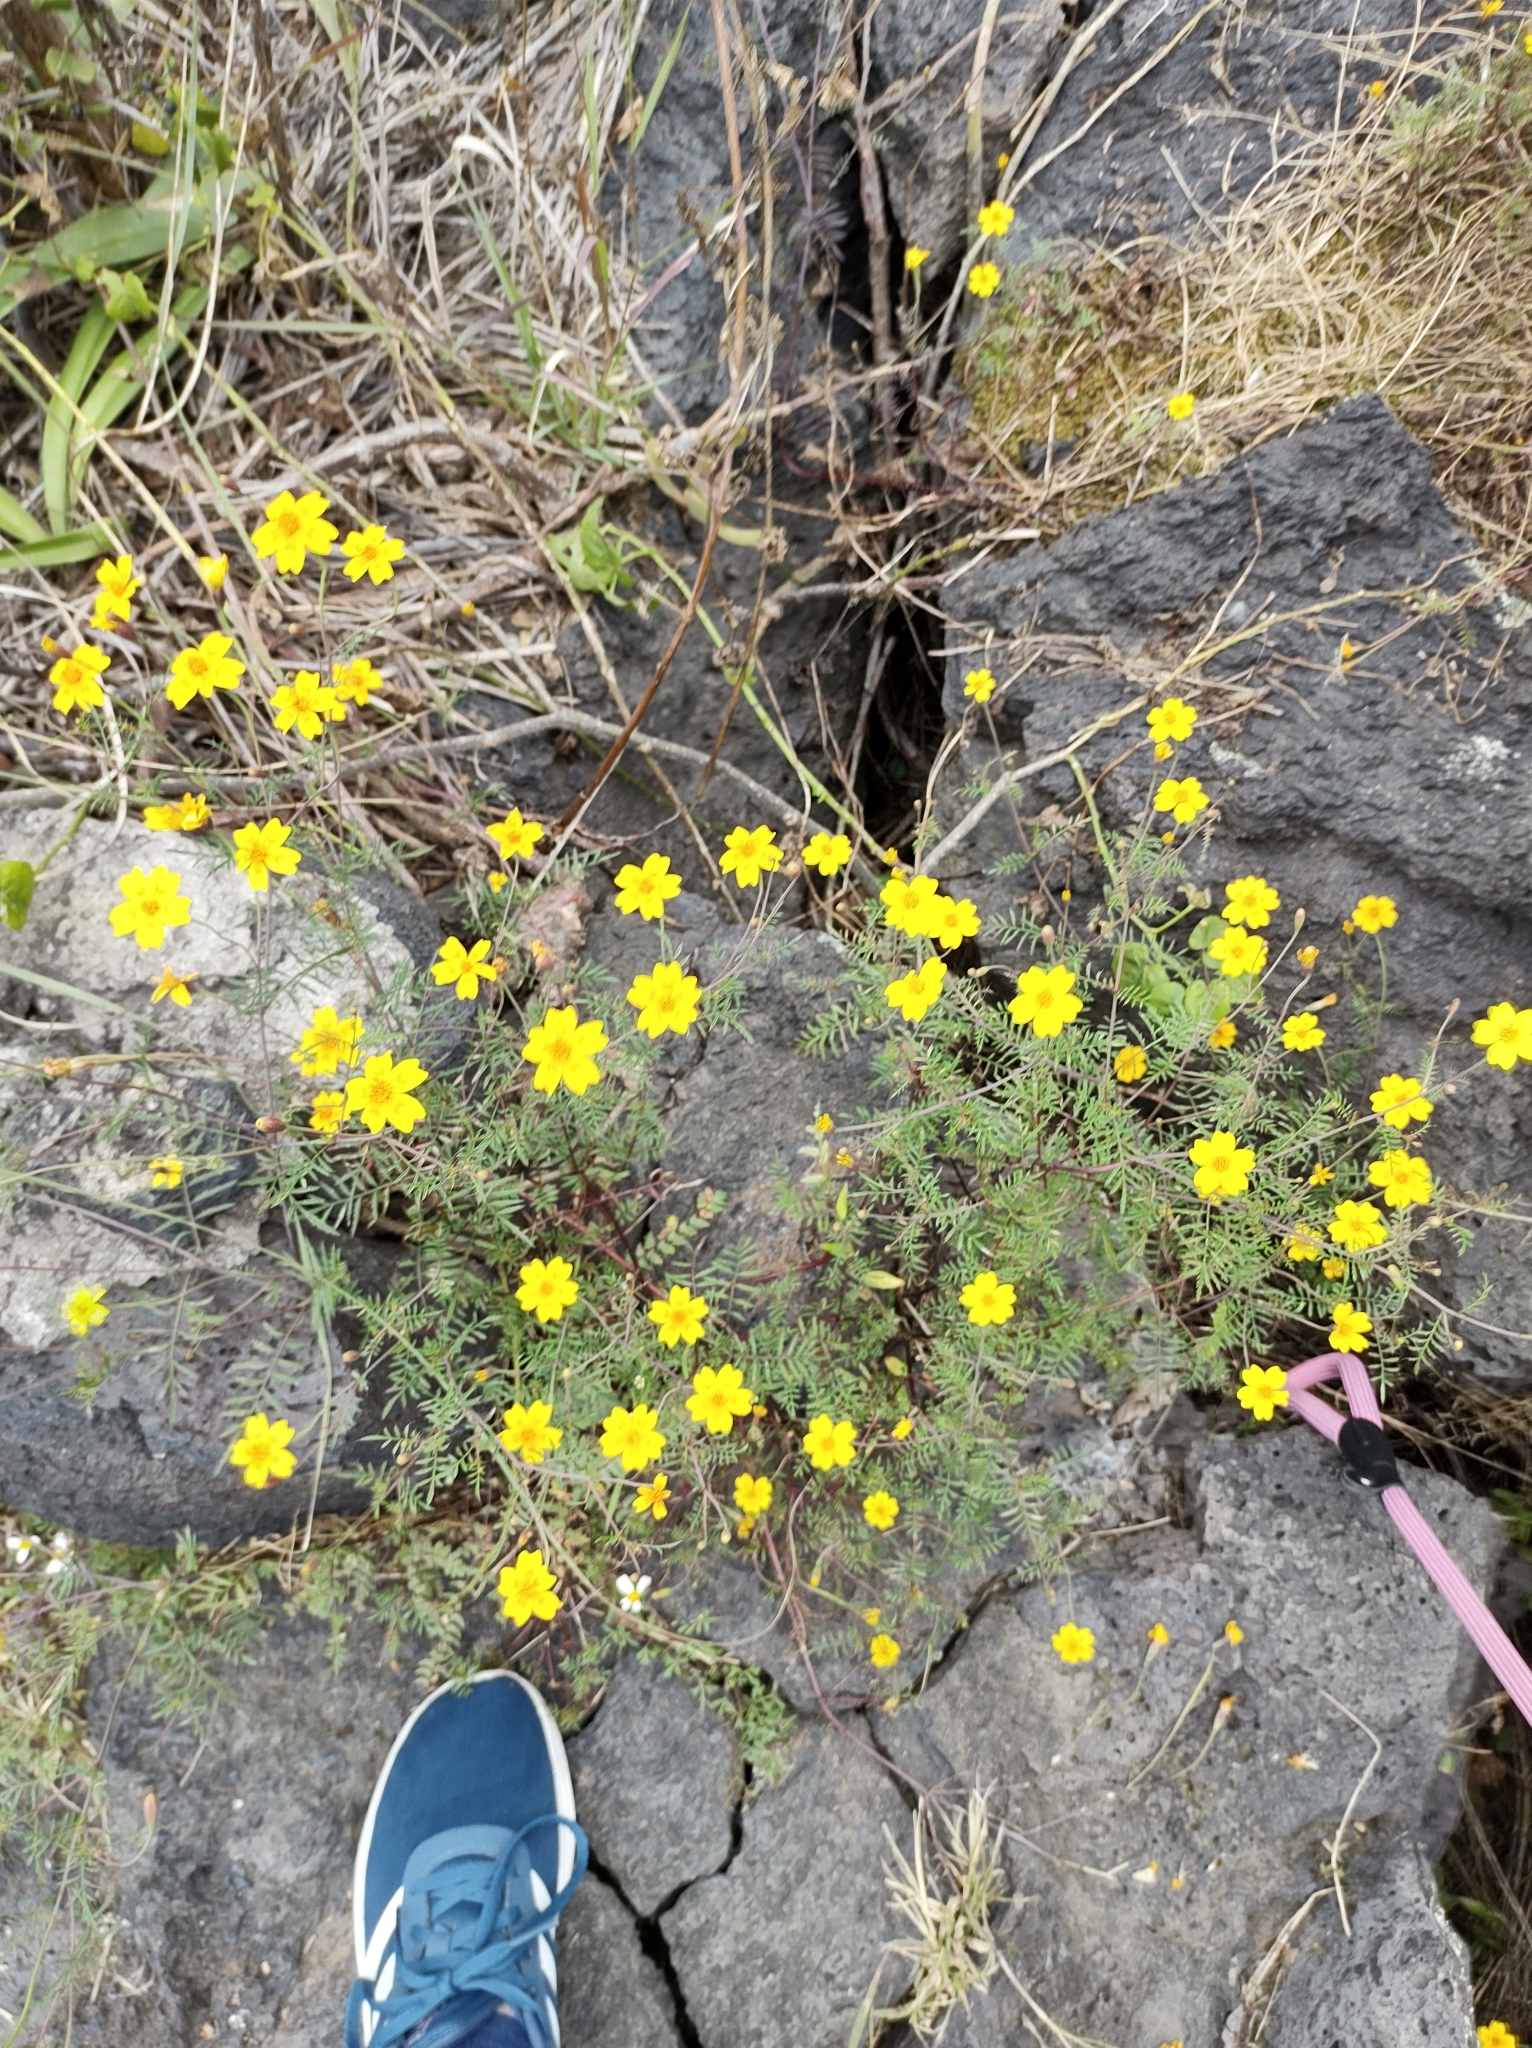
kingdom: Plantae
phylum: Tracheophyta
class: Magnoliopsida
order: Asterales
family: Asteraceae
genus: Tagetes
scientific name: Tagetes lunulata
